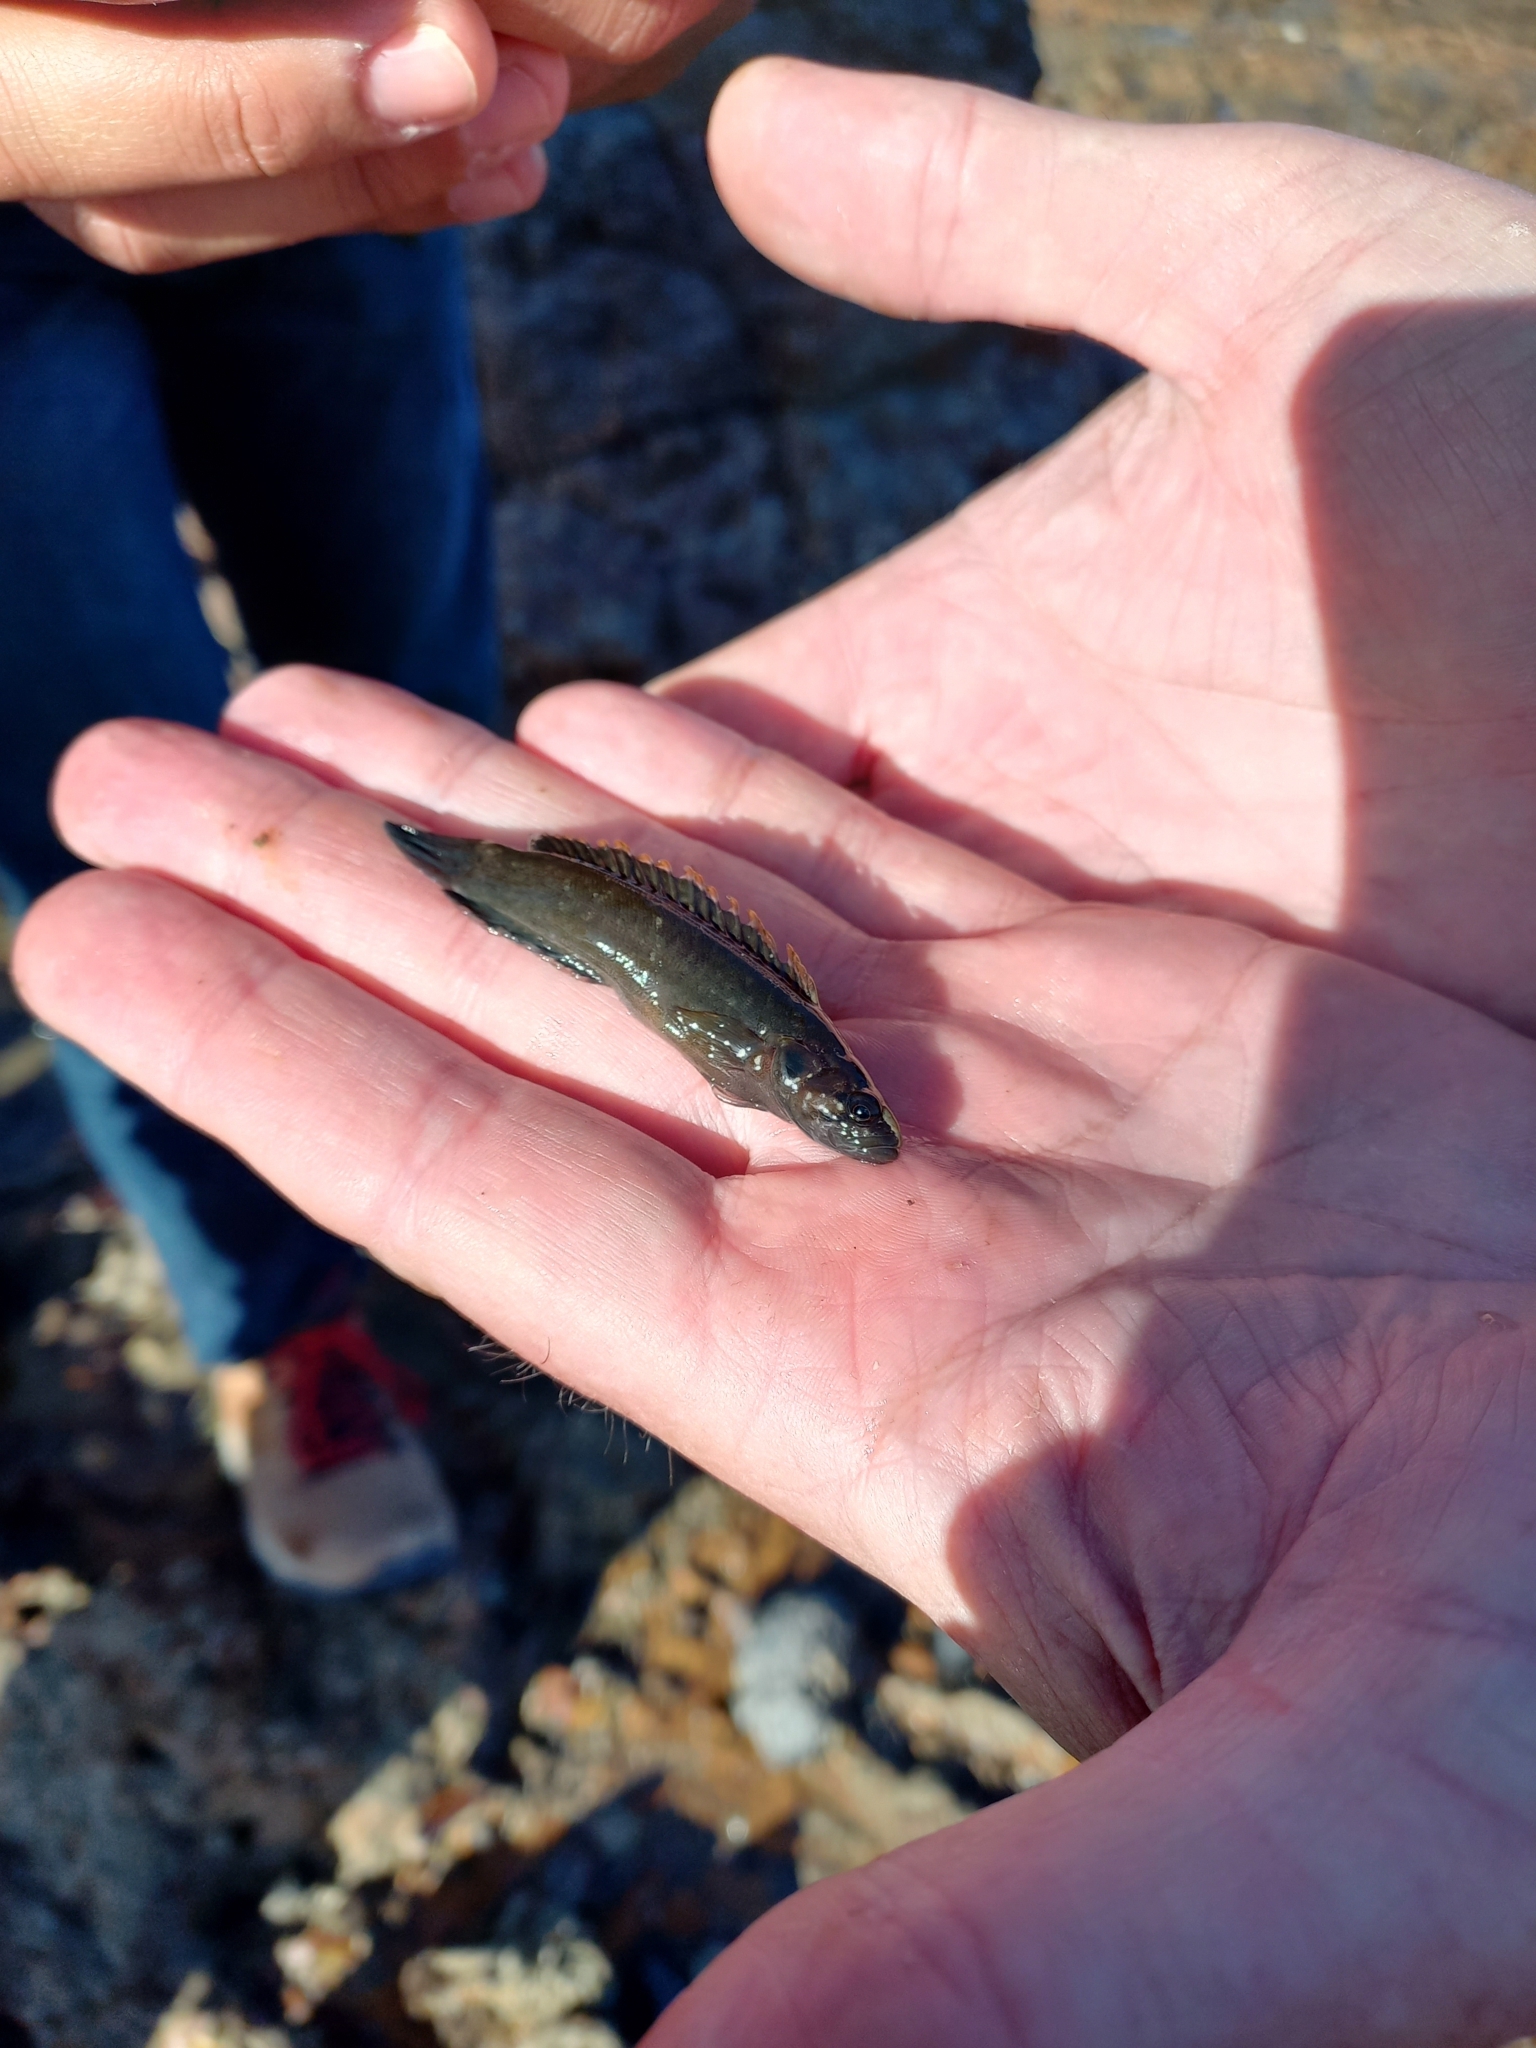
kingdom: Animalia
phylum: Chordata
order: Perciformes
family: Plesiopidae
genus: Acanthoclinus
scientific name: Acanthoclinus fuscus
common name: Olive rockfish
